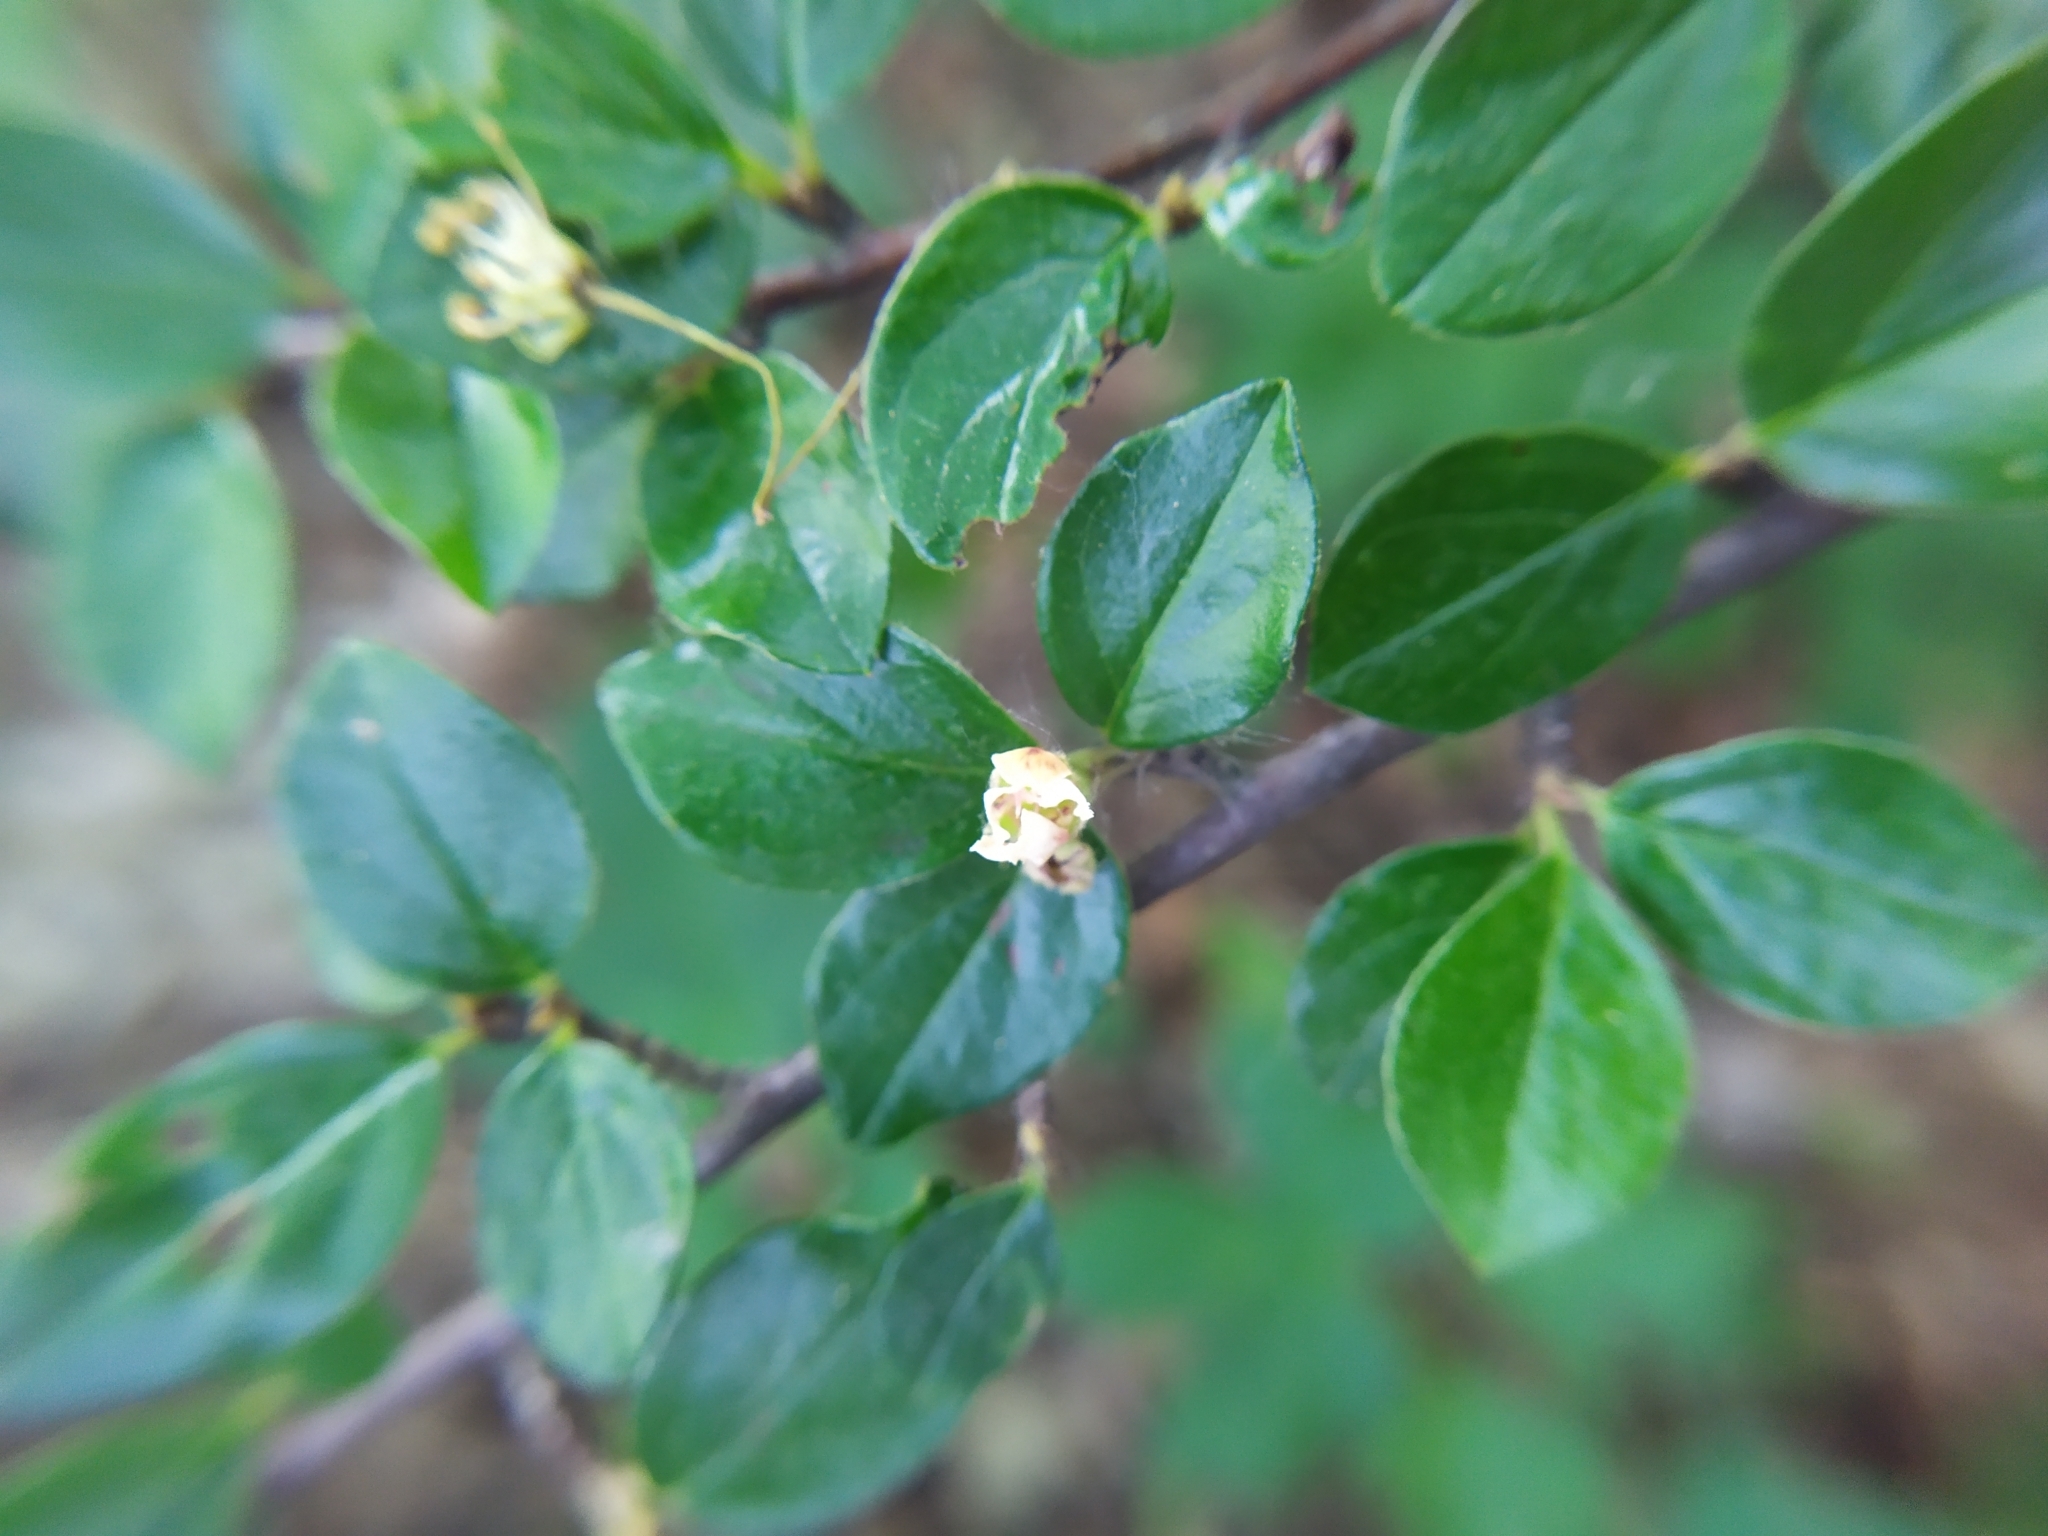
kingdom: Plantae
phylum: Tracheophyta
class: Magnoliopsida
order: Rosales
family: Rosaceae
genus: Cotoneaster
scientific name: Cotoneaster divaricatus
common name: Spreading cotoneaster
